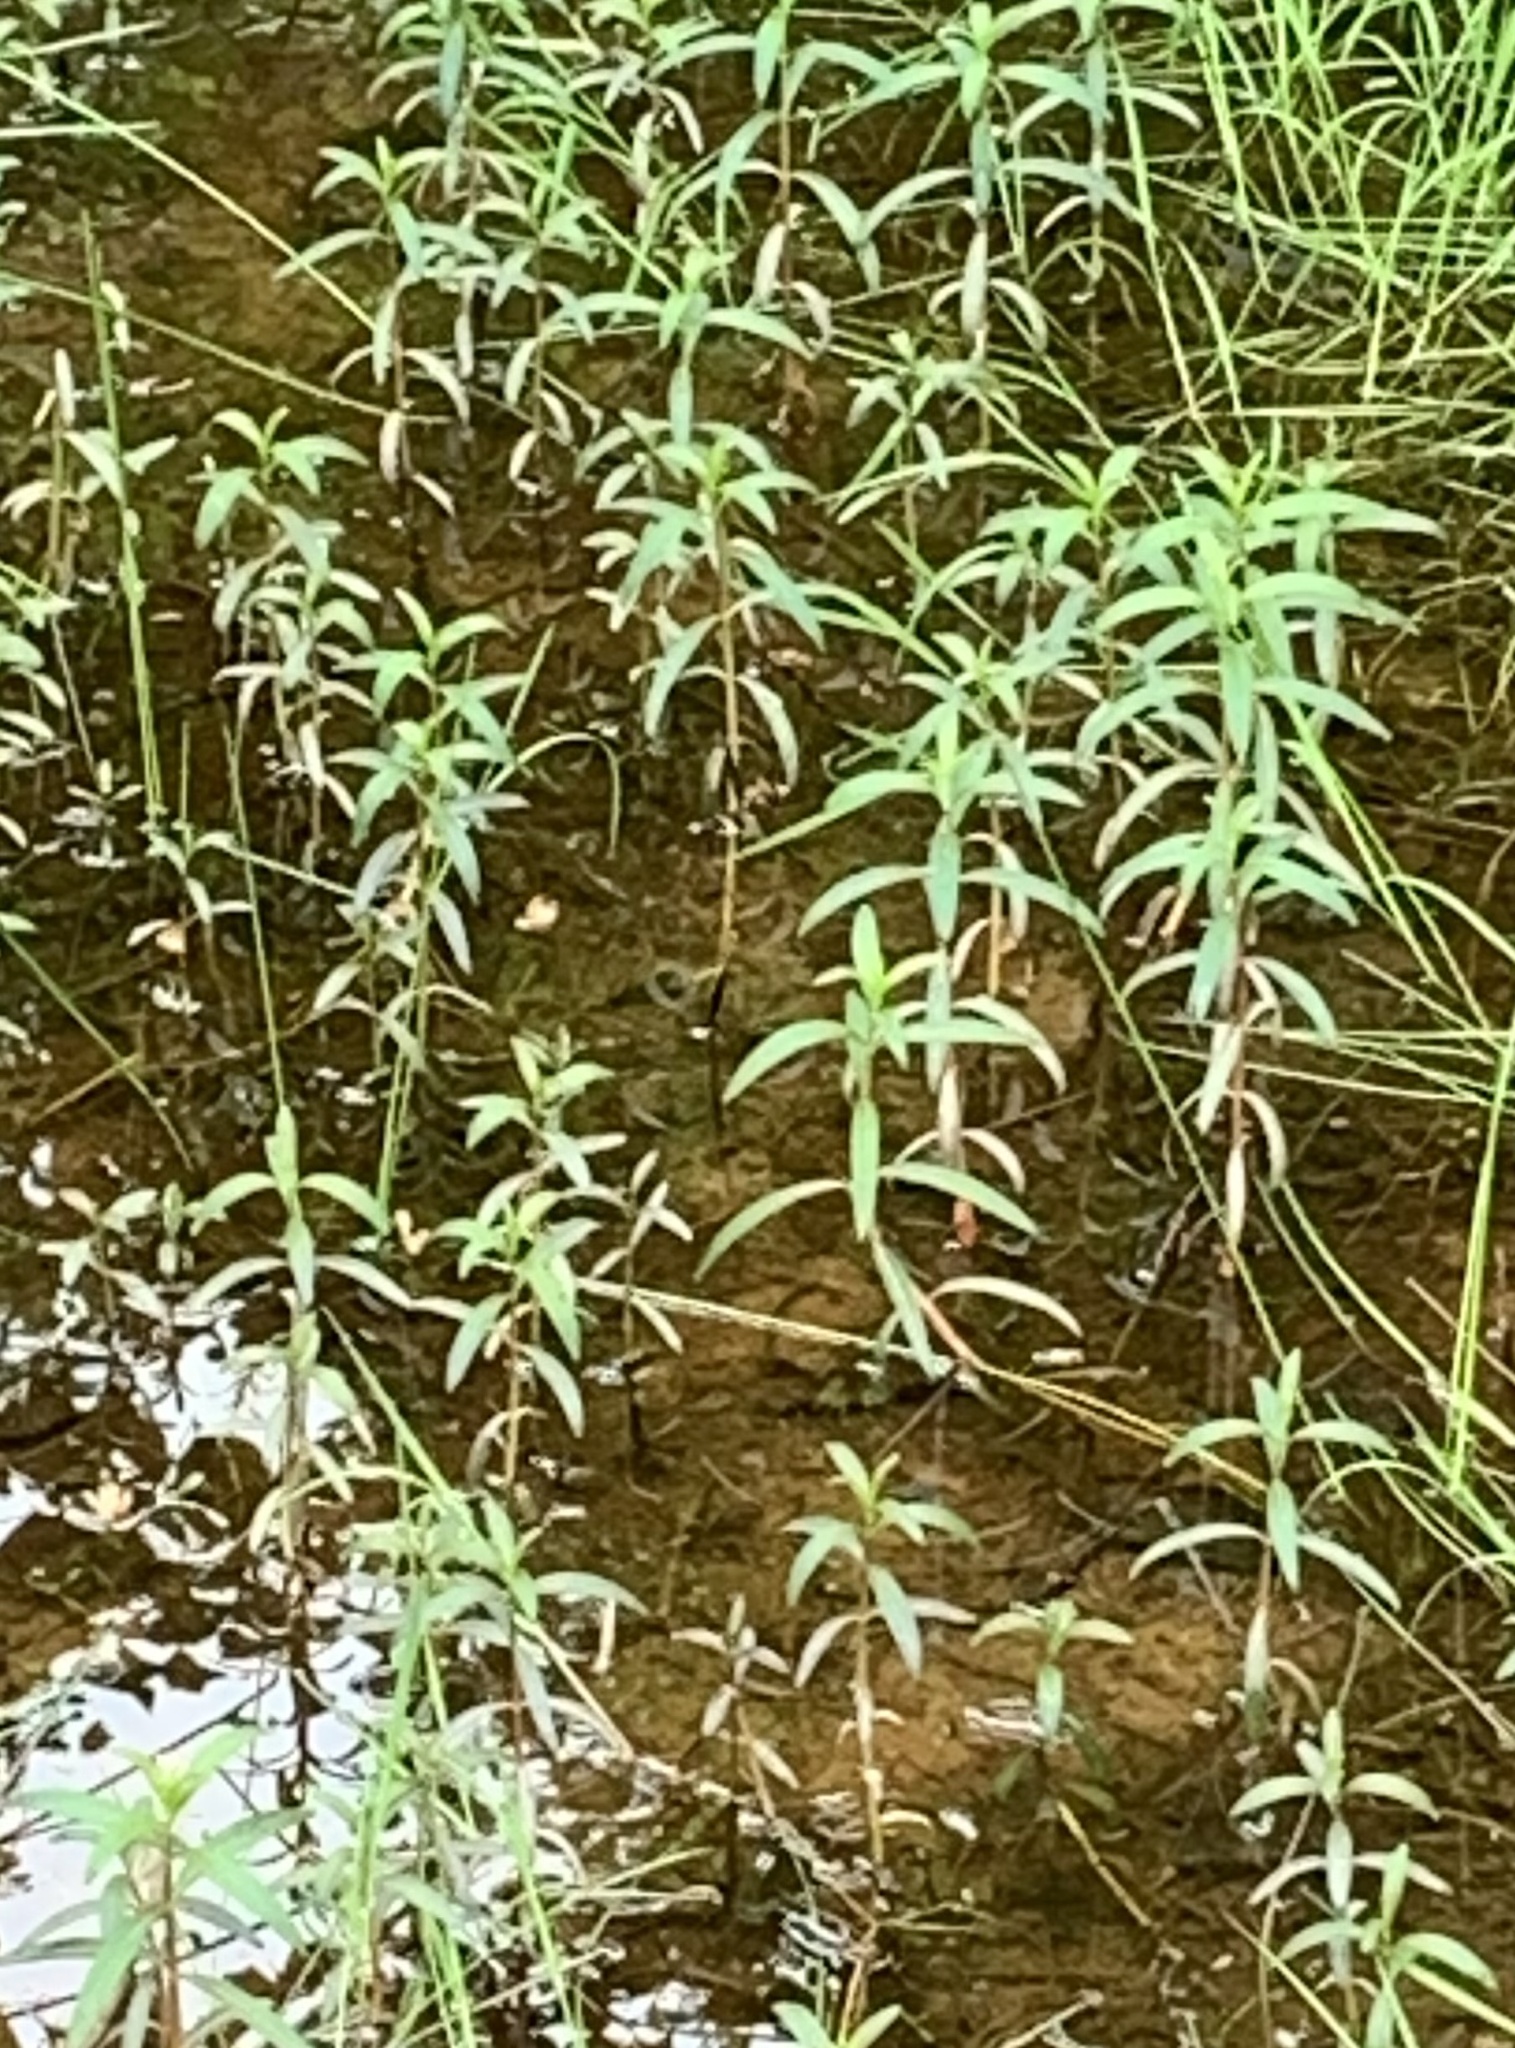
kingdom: Plantae
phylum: Tracheophyta
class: Magnoliopsida
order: Ericales
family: Primulaceae
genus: Lysimachia
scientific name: Lysimachia thyrsiflora
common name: Tufted loosestrife
